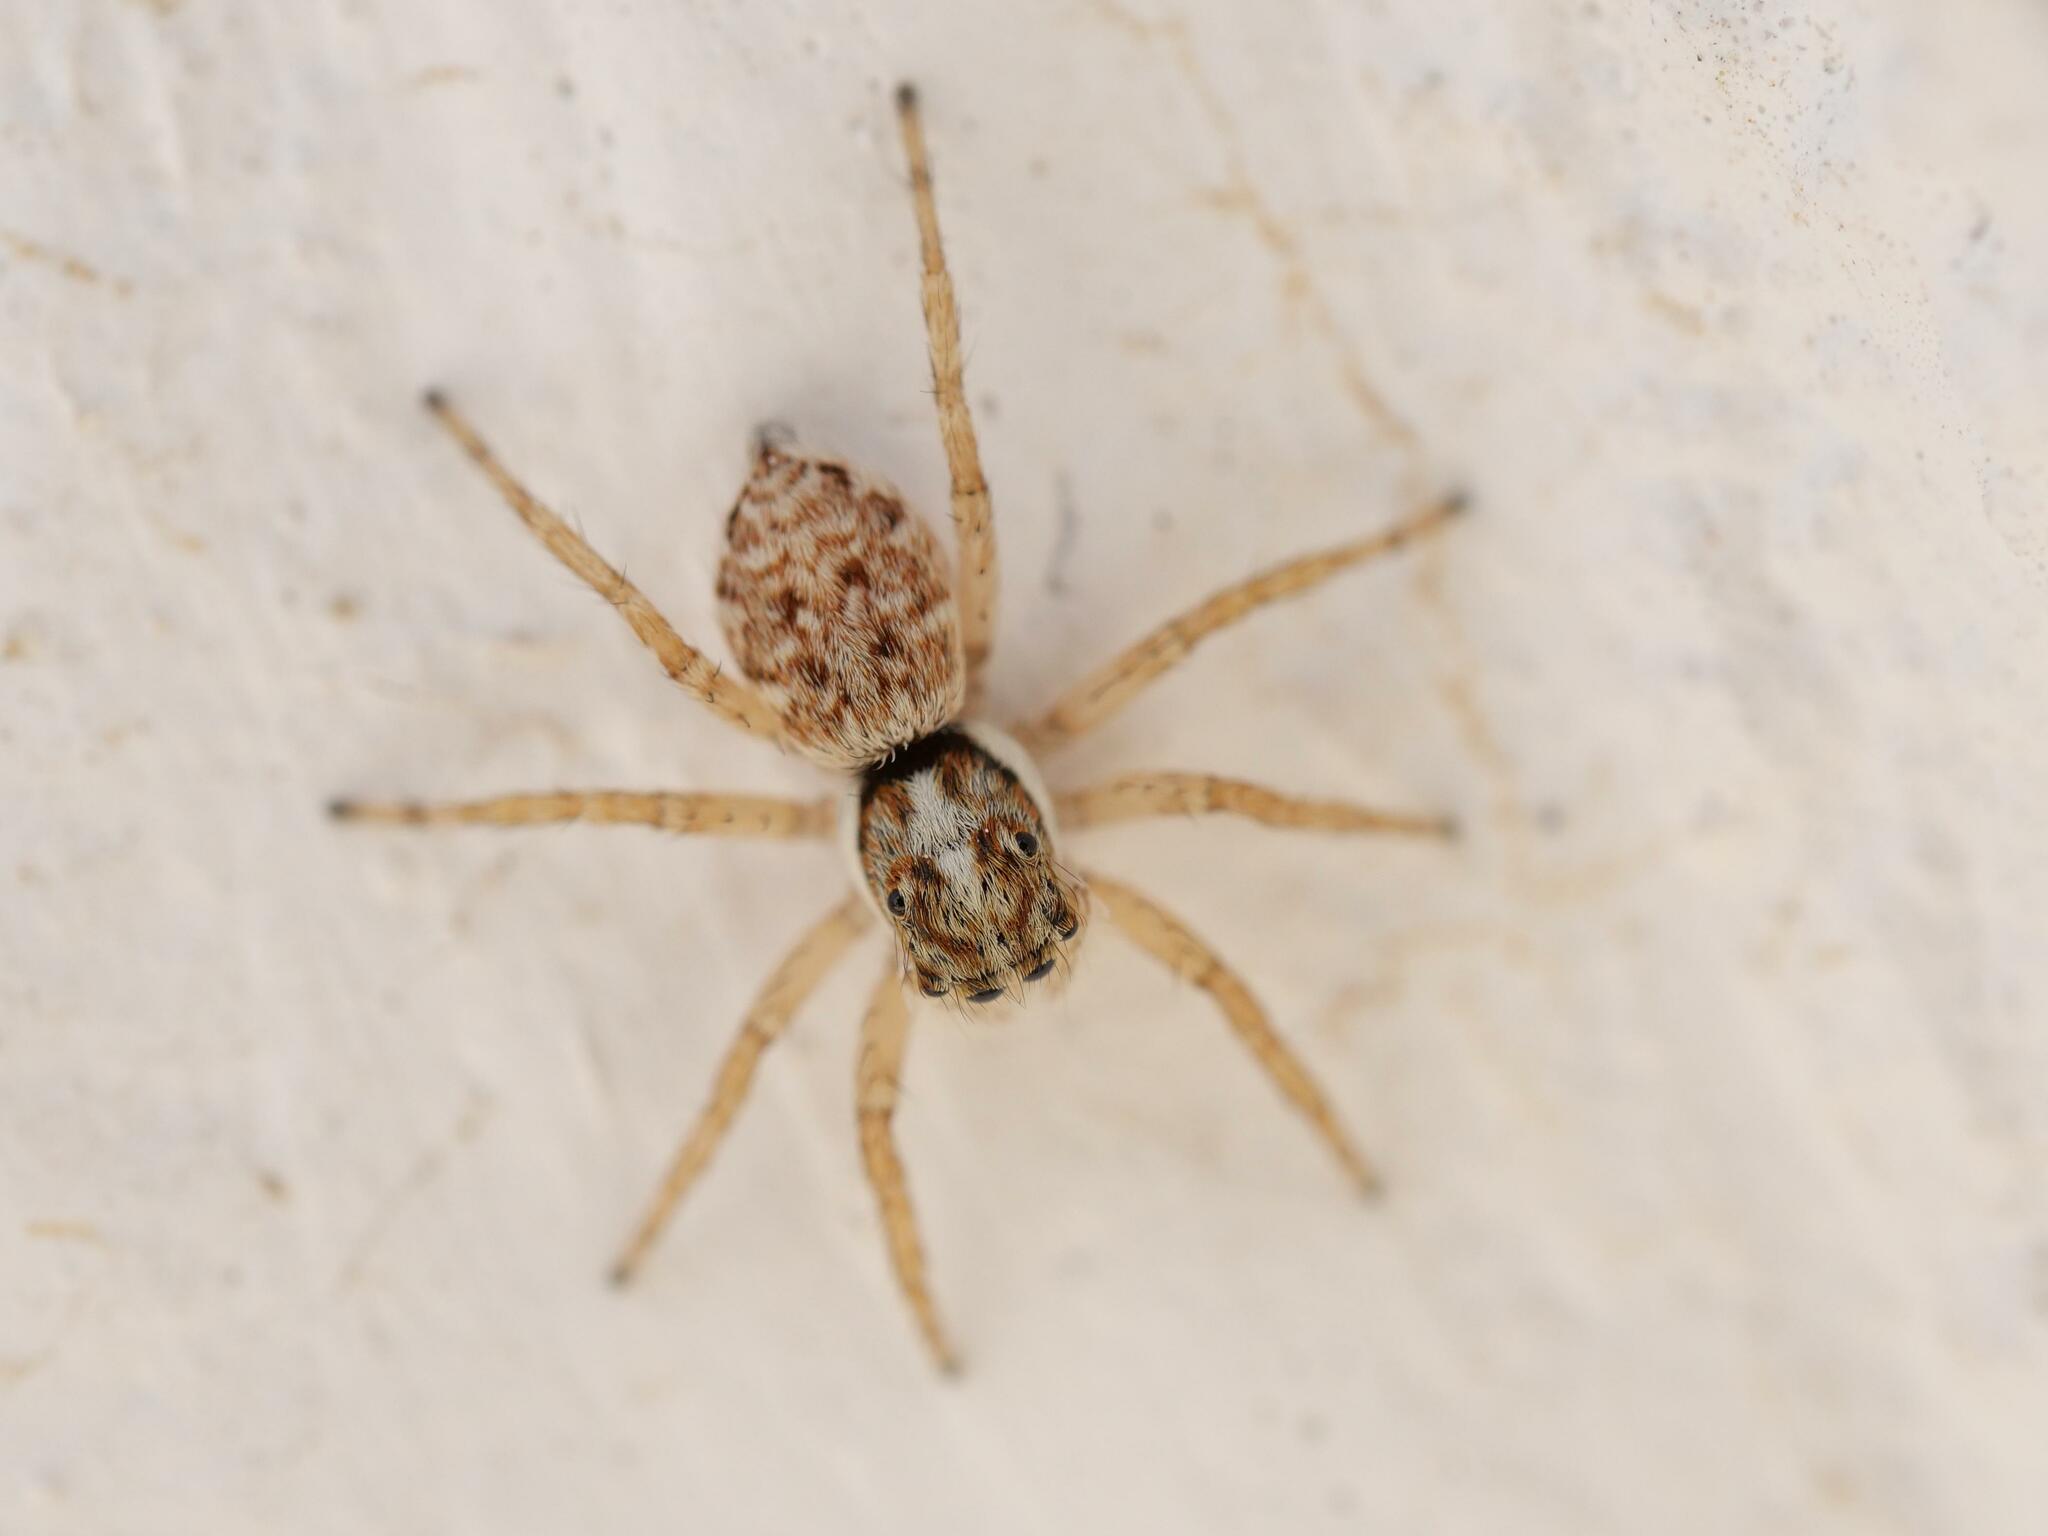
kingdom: Animalia
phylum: Arthropoda
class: Arachnida
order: Araneae
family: Salticidae
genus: Menemerus
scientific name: Menemerus semilimbatus
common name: Jumping spider
